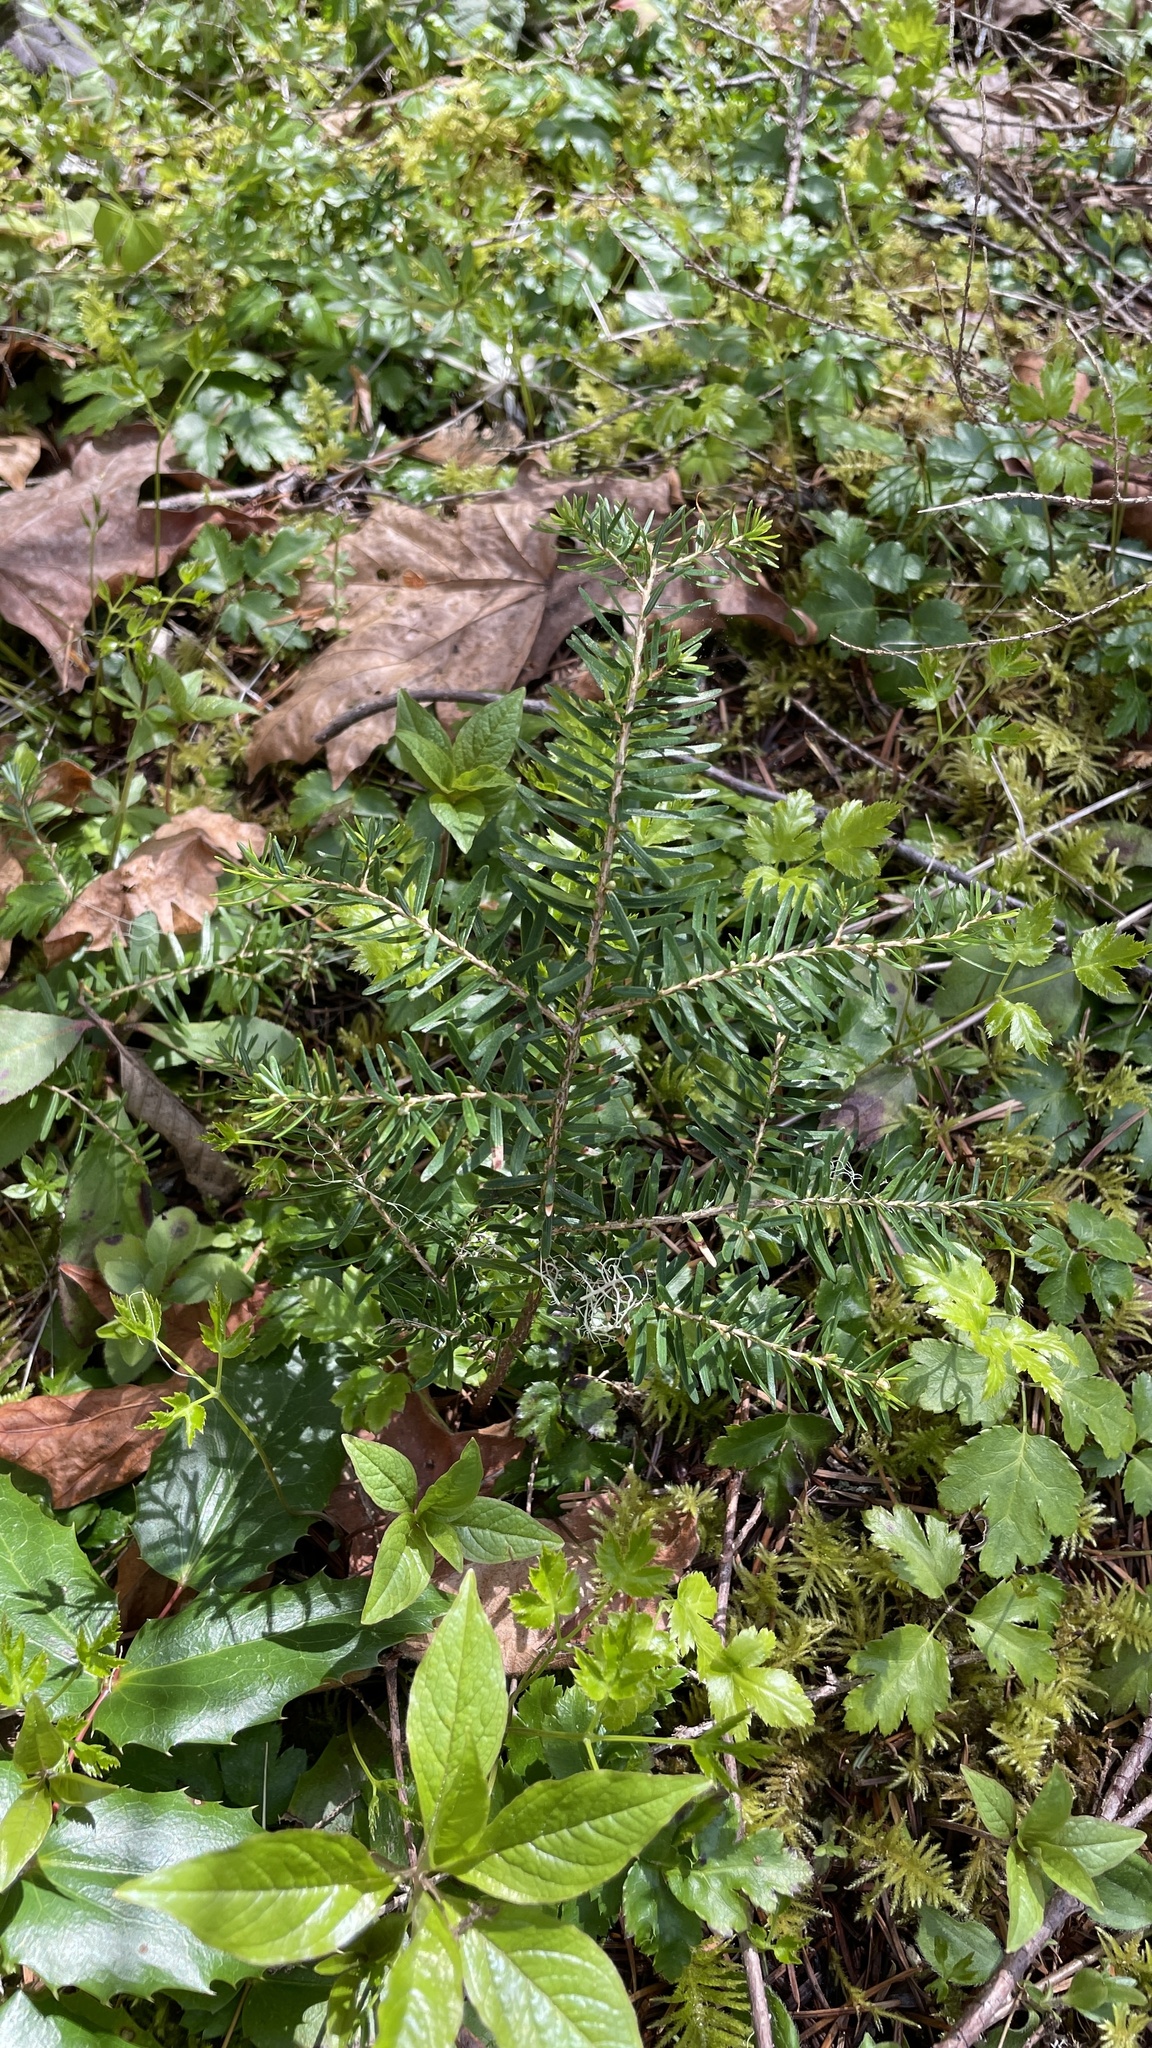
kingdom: Plantae
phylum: Tracheophyta
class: Pinopsida
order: Pinales
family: Pinaceae
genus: Tsuga
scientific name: Tsuga heterophylla
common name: Western hemlock
